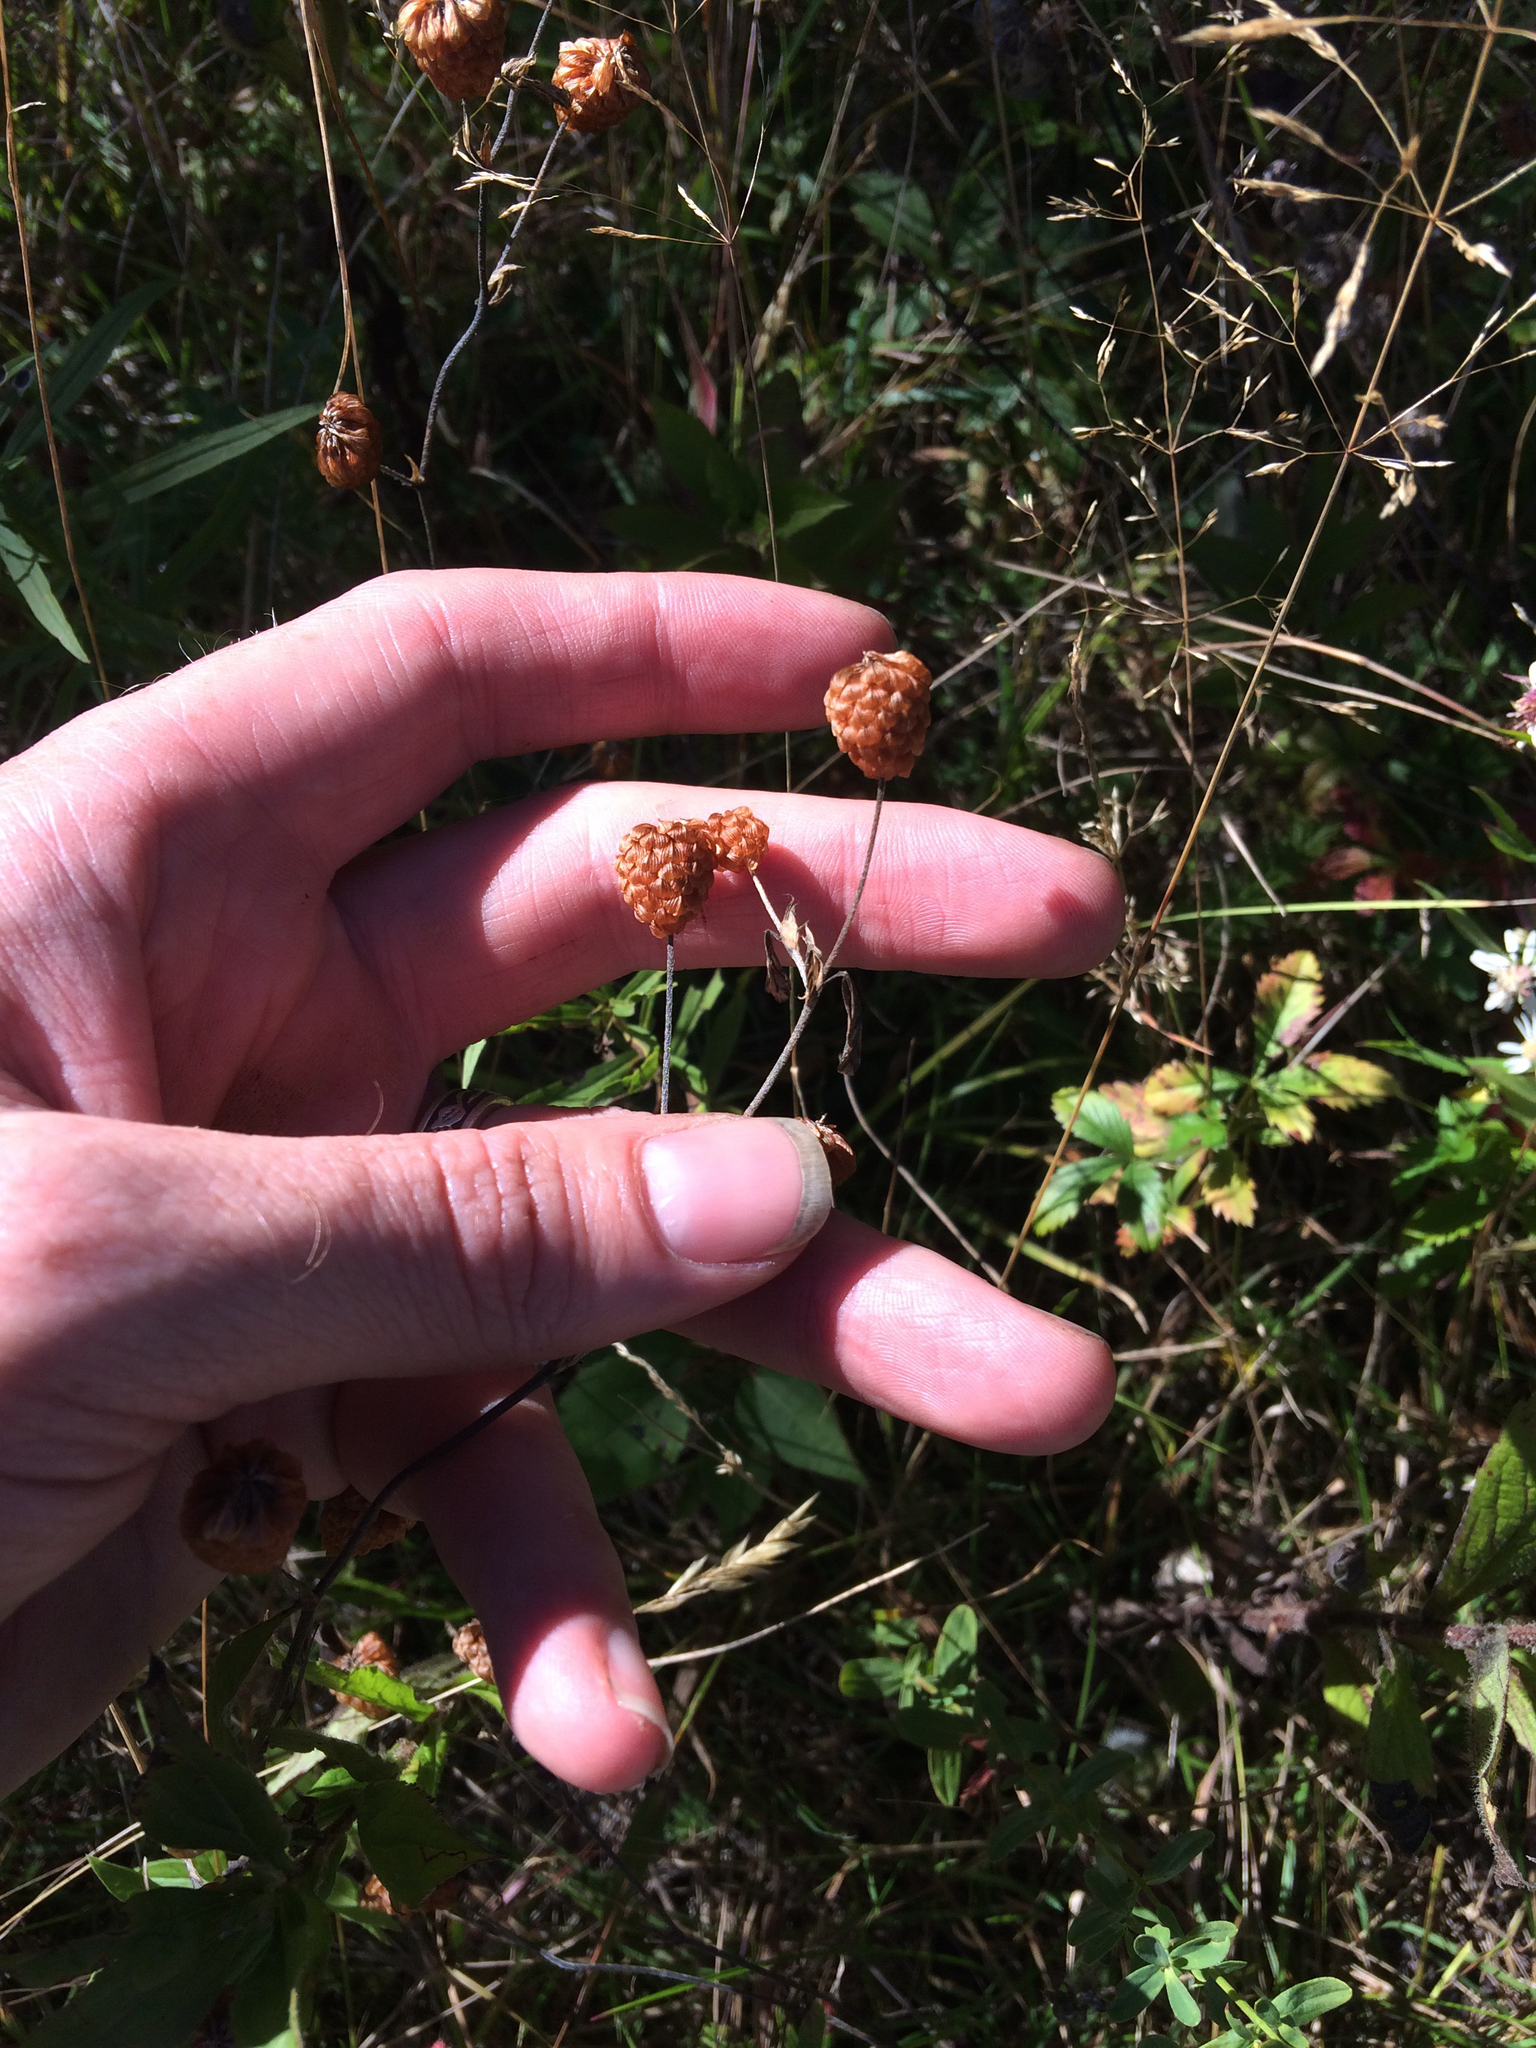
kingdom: Plantae
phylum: Tracheophyta
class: Magnoliopsida
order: Fabales
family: Fabaceae
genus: Trifolium
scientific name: Trifolium aureum
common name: Golden clover
